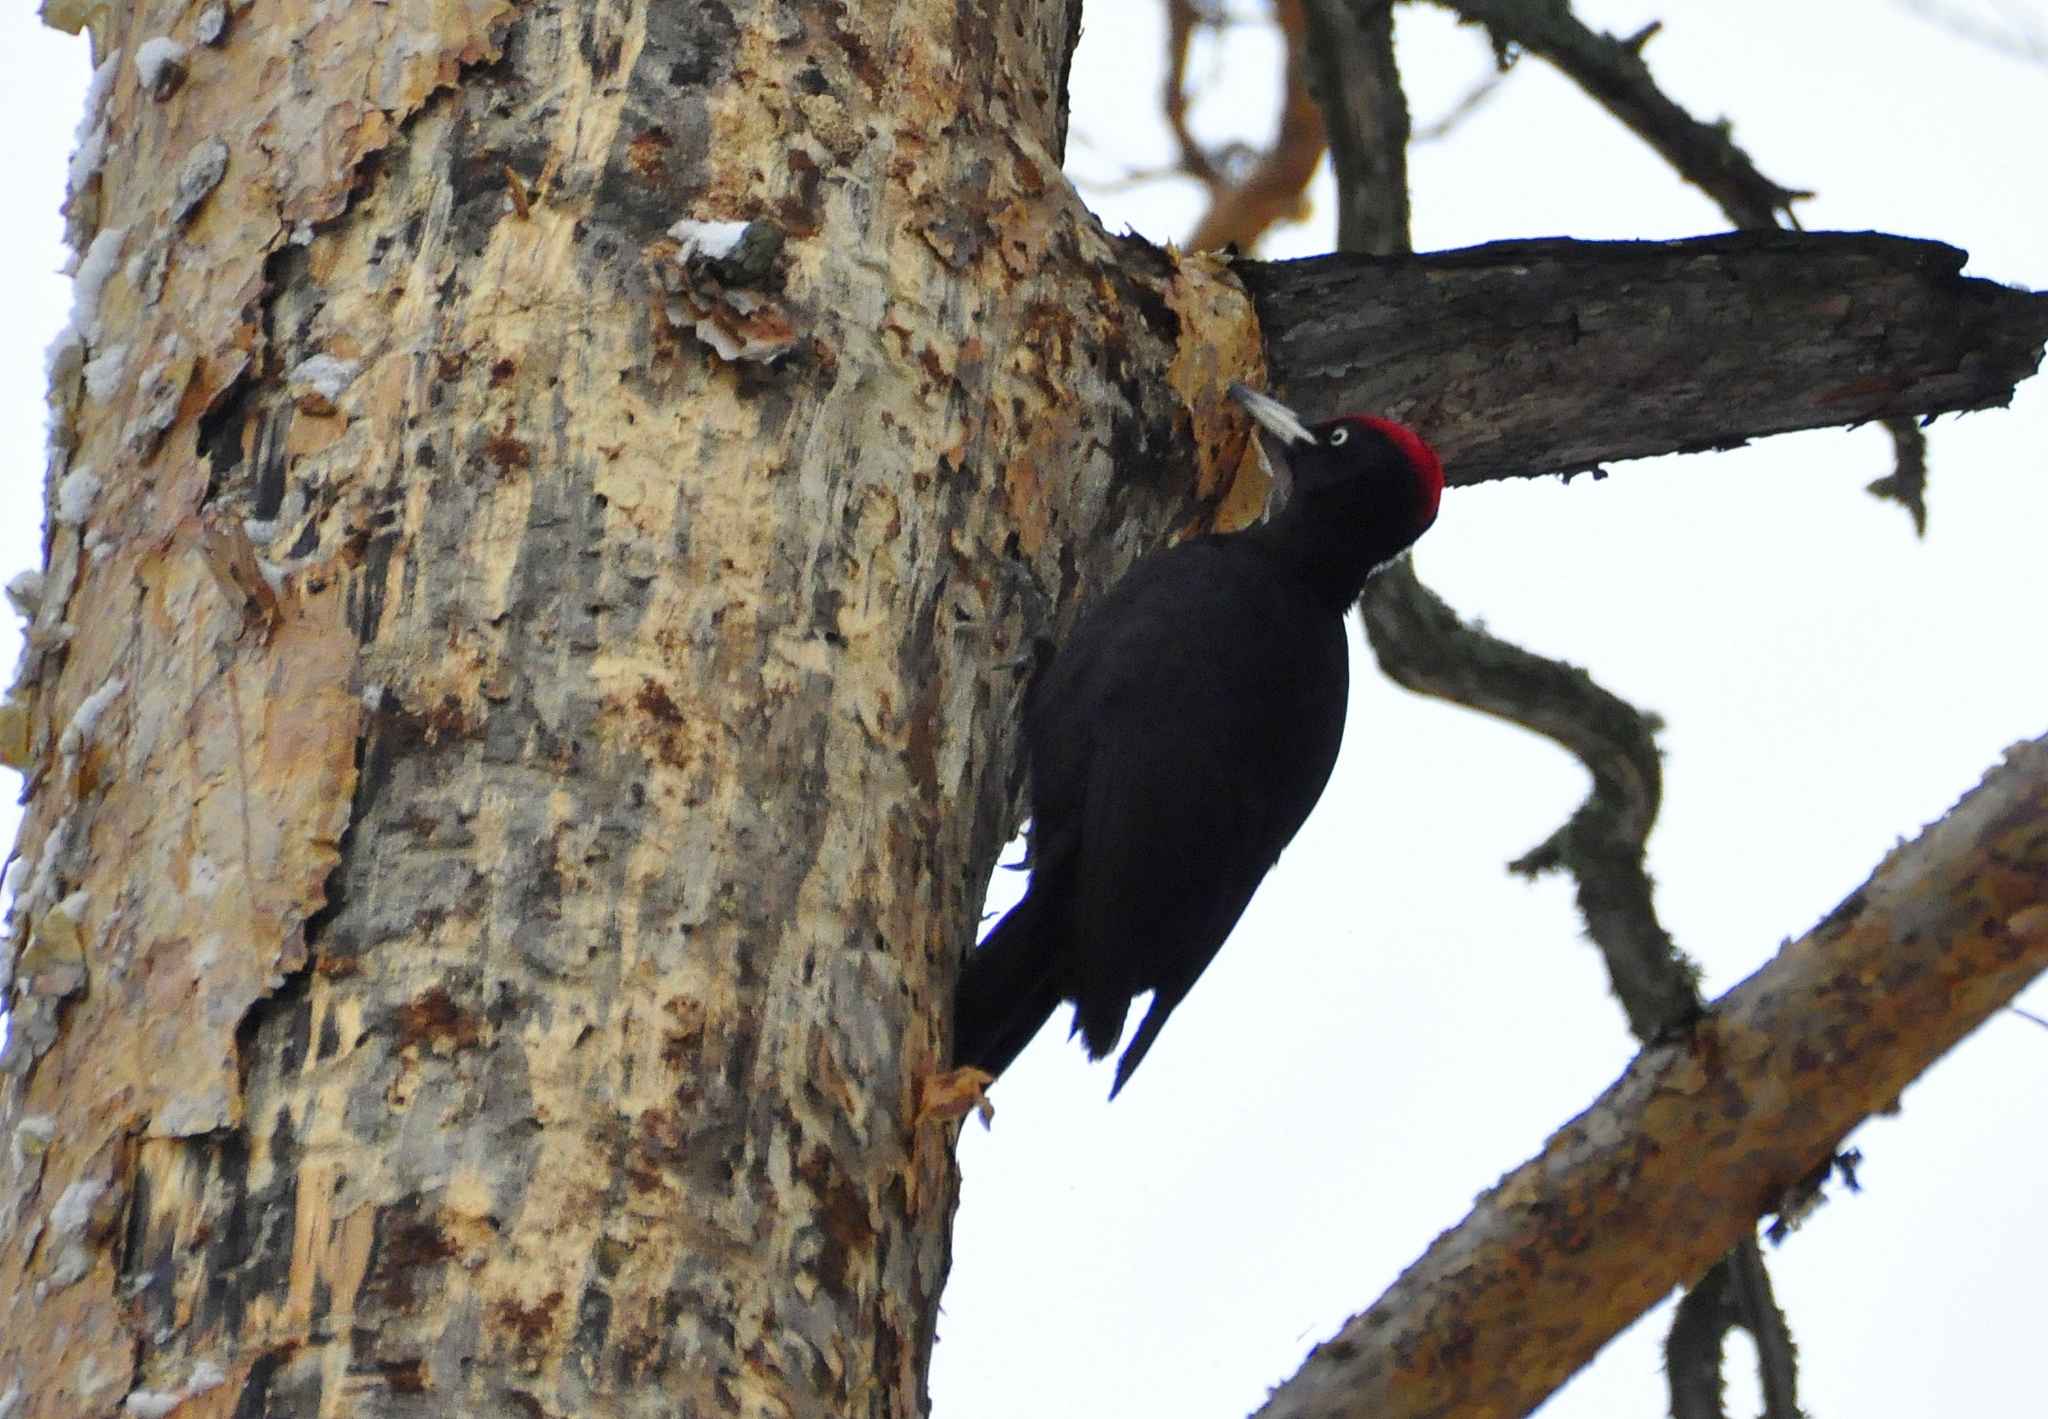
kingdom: Animalia
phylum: Chordata
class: Aves
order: Piciformes
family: Picidae
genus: Dryocopus
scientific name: Dryocopus martius
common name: Black woodpecker
